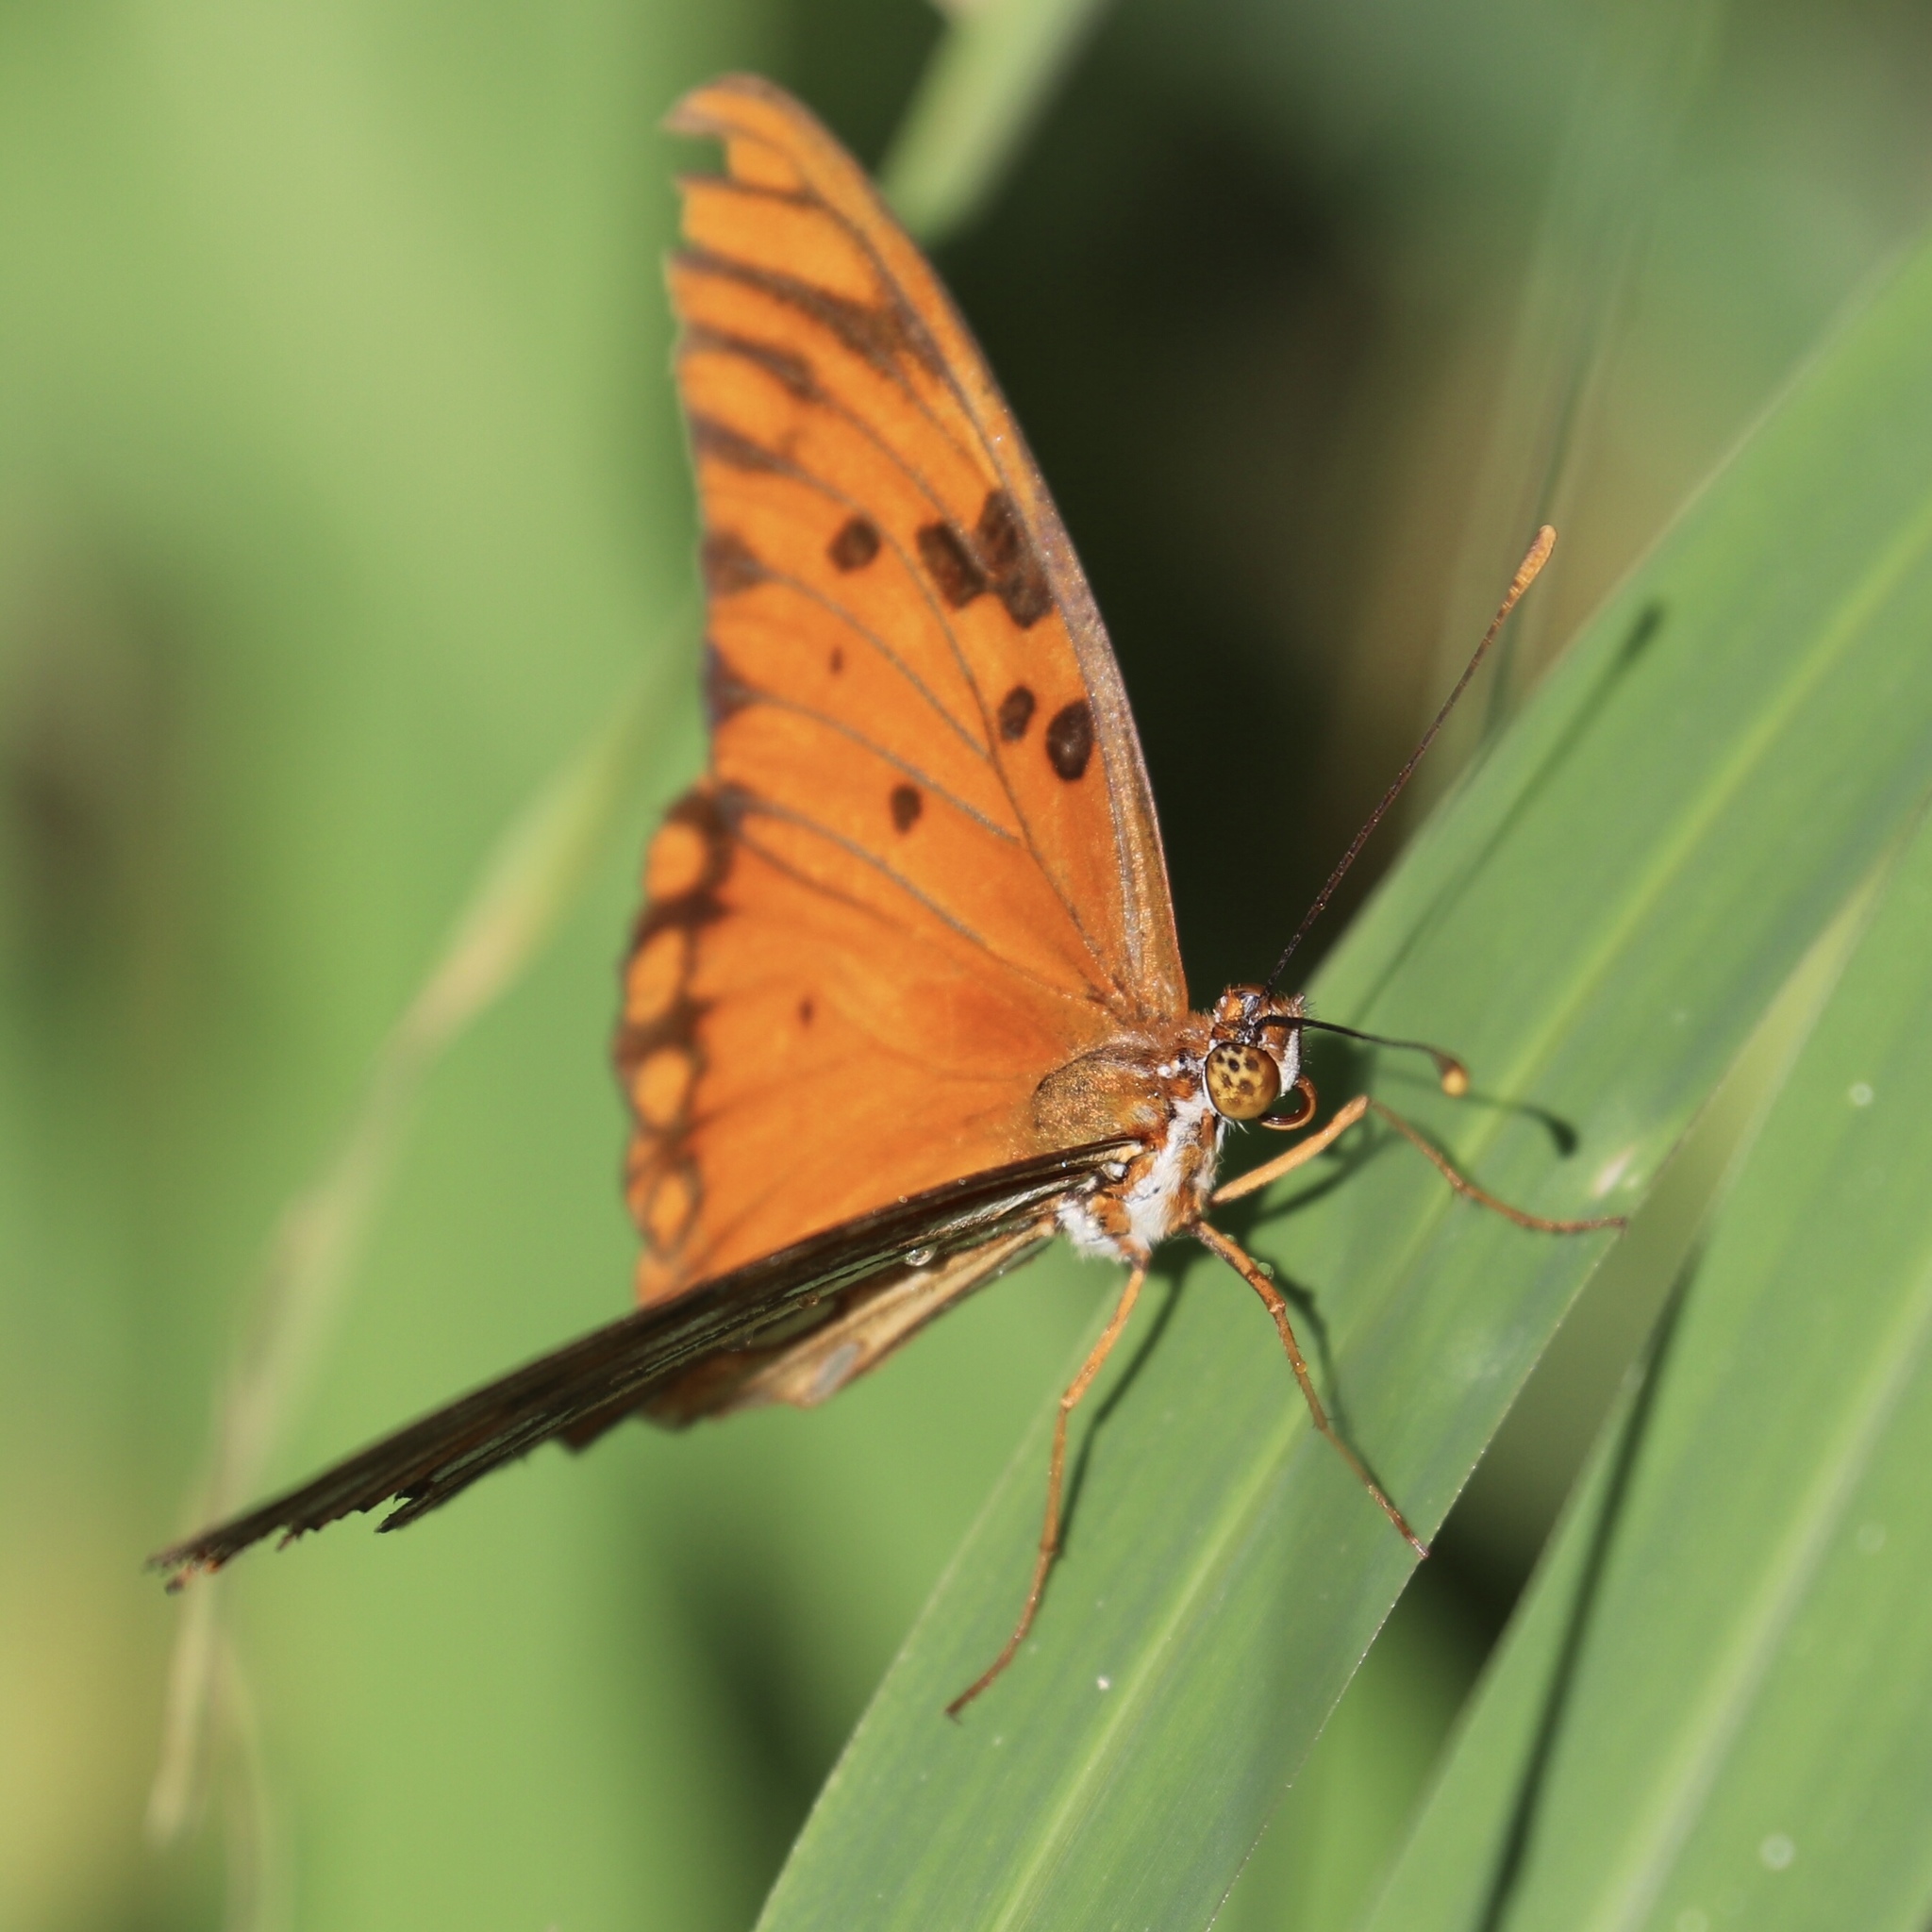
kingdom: Animalia
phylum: Arthropoda
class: Insecta
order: Lepidoptera
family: Nymphalidae
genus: Dione
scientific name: Dione vanillae
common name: Gulf fritillary
